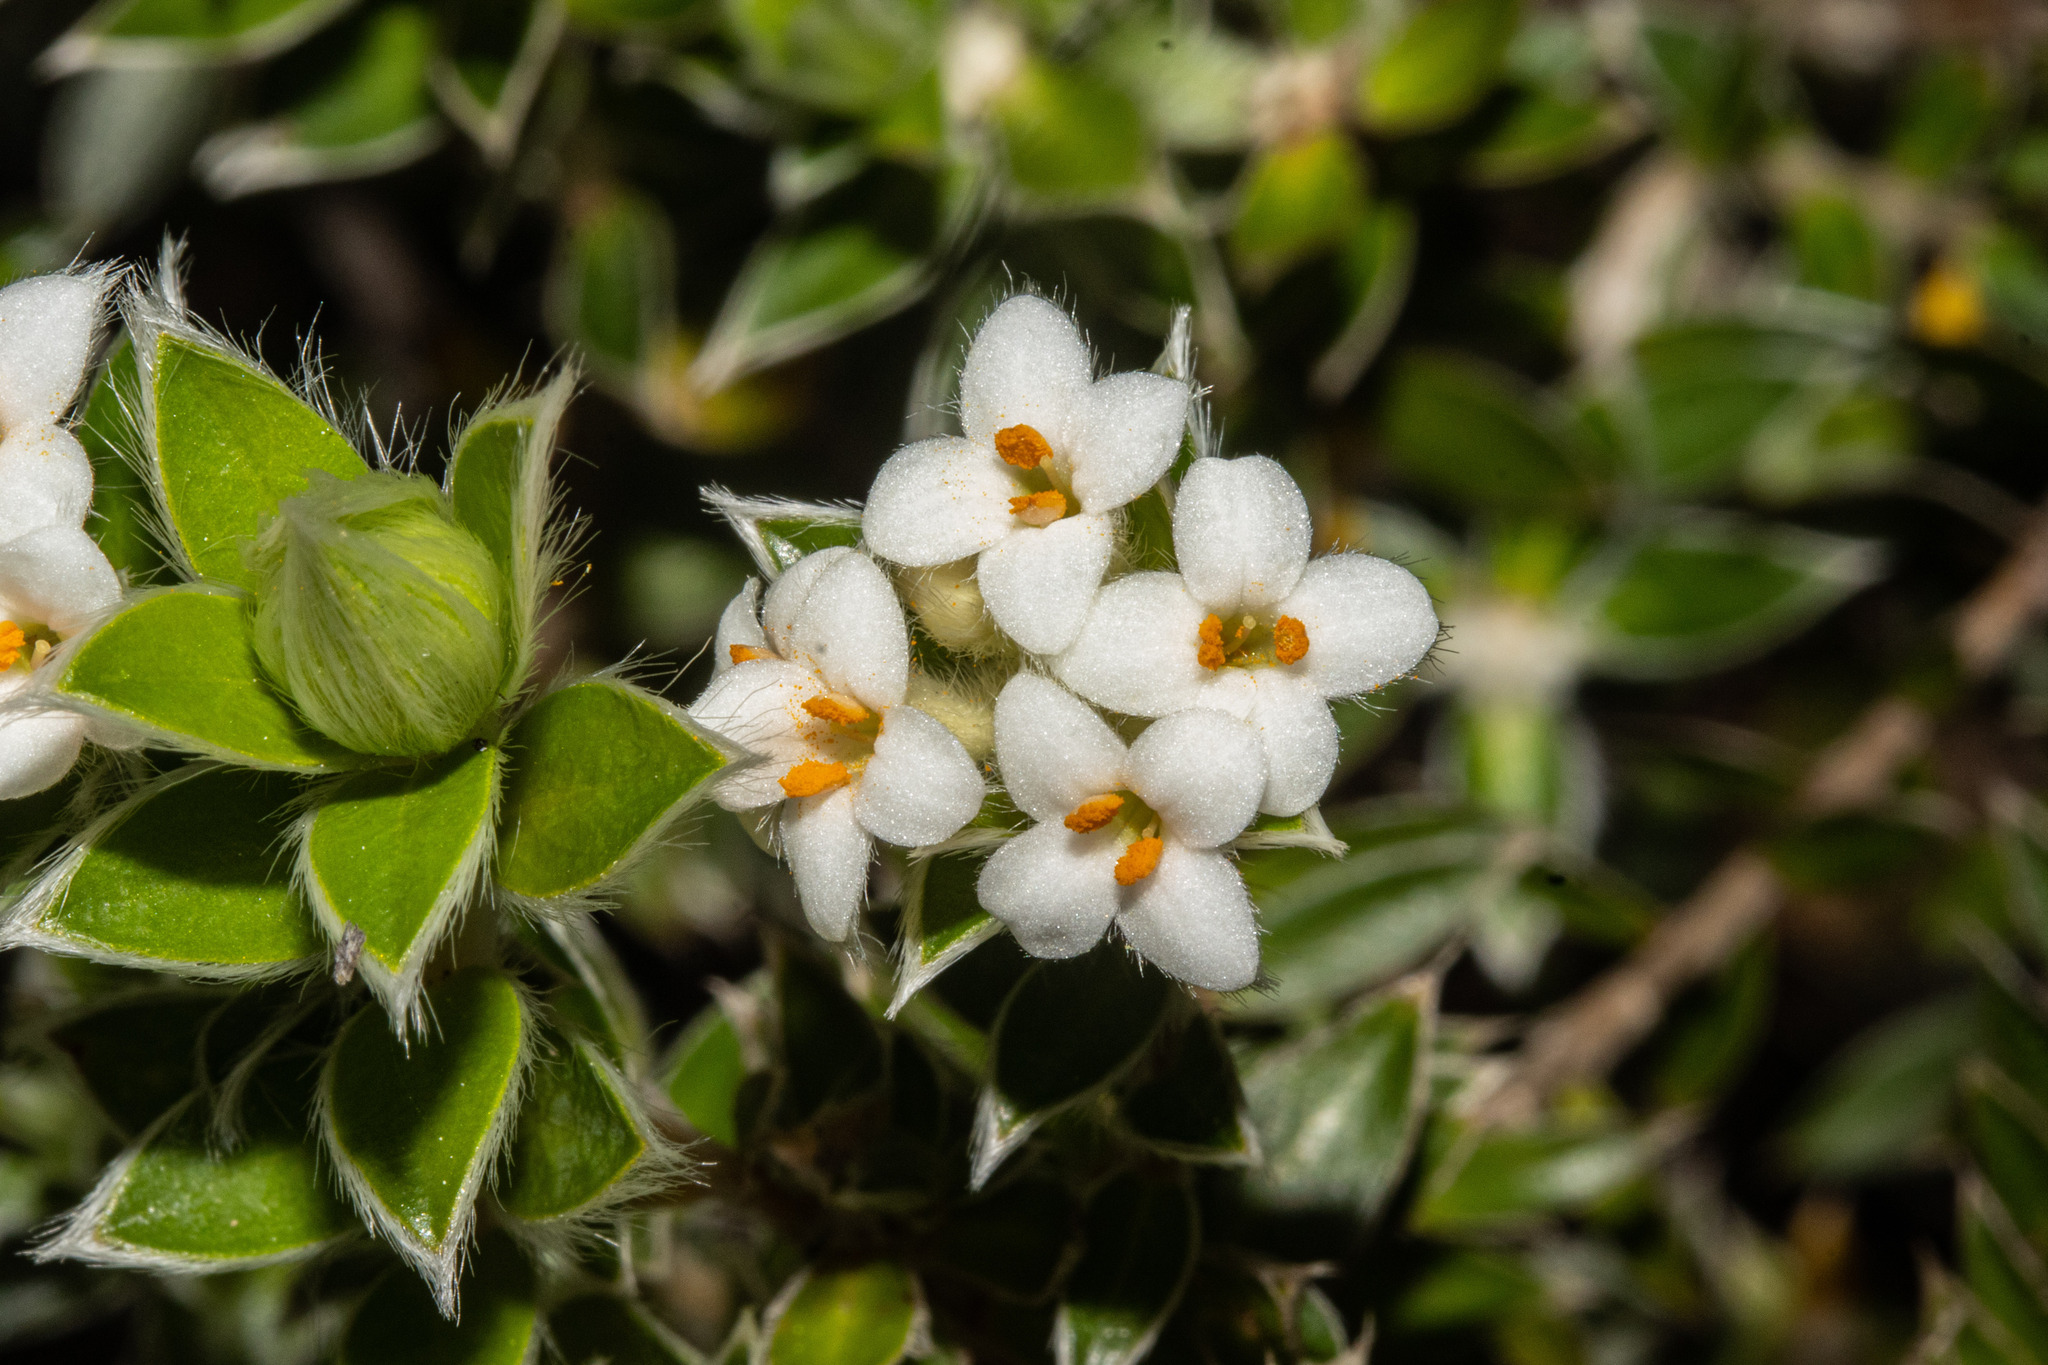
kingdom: Plantae
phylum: Tracheophyta
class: Magnoliopsida
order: Malvales
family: Thymelaeaceae
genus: Pimelea
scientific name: Pimelea pseudolyallii
